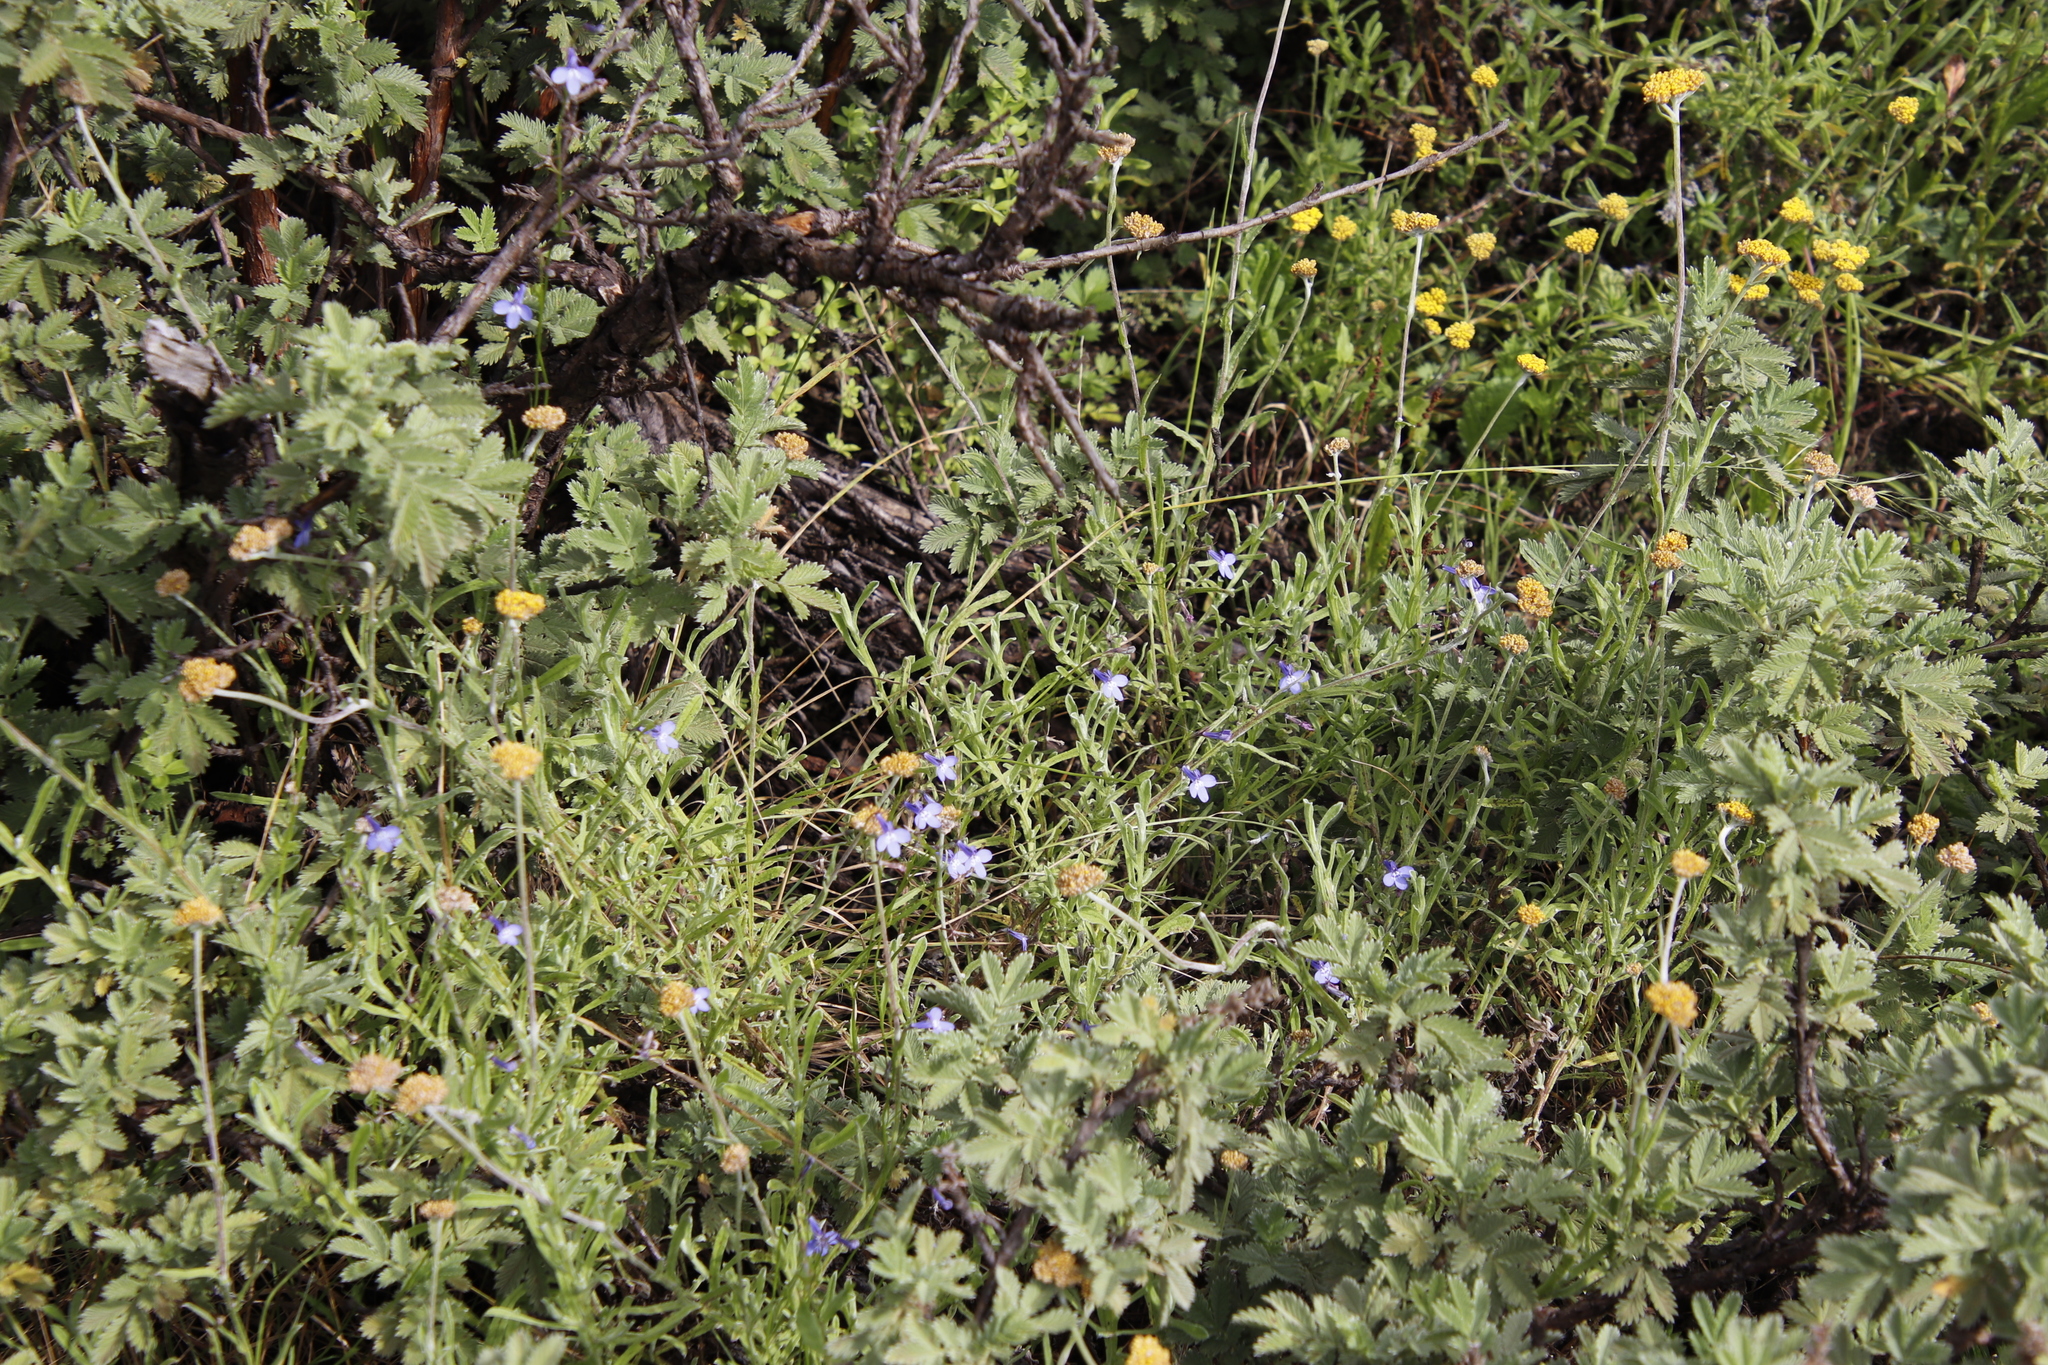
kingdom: Plantae
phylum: Tracheophyta
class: Magnoliopsida
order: Asterales
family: Campanulaceae
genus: Lobelia
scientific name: Lobelia flaccida
